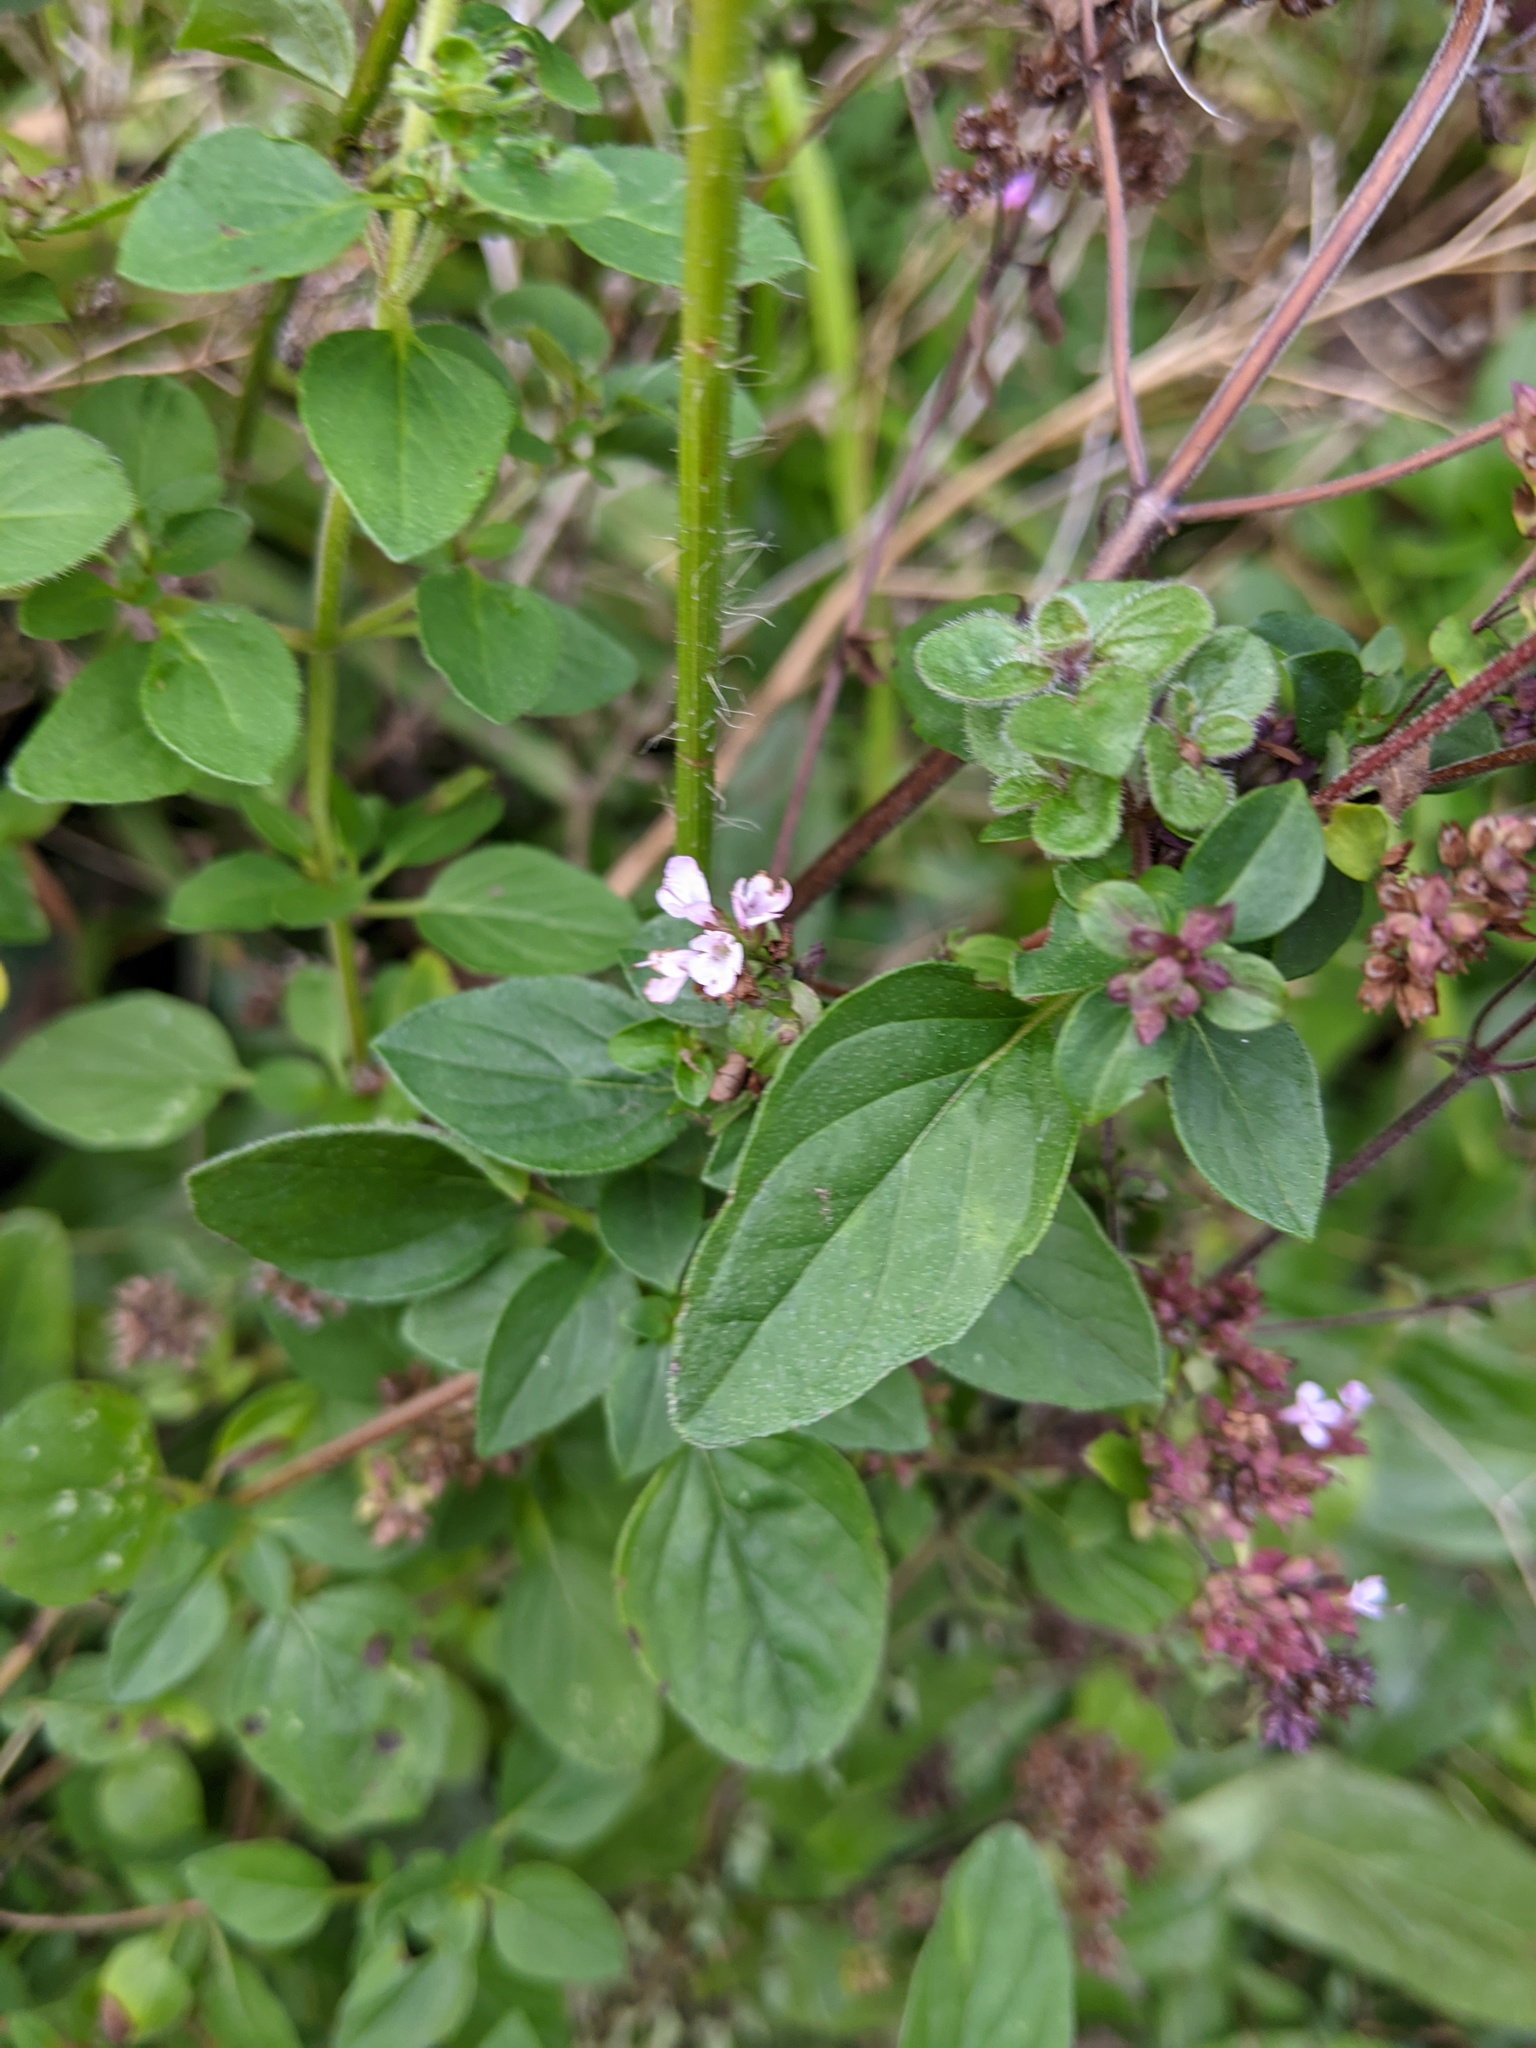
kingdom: Plantae
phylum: Tracheophyta
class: Magnoliopsida
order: Lamiales
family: Lamiaceae
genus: Origanum
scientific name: Origanum vulgare
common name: Wild marjoram
